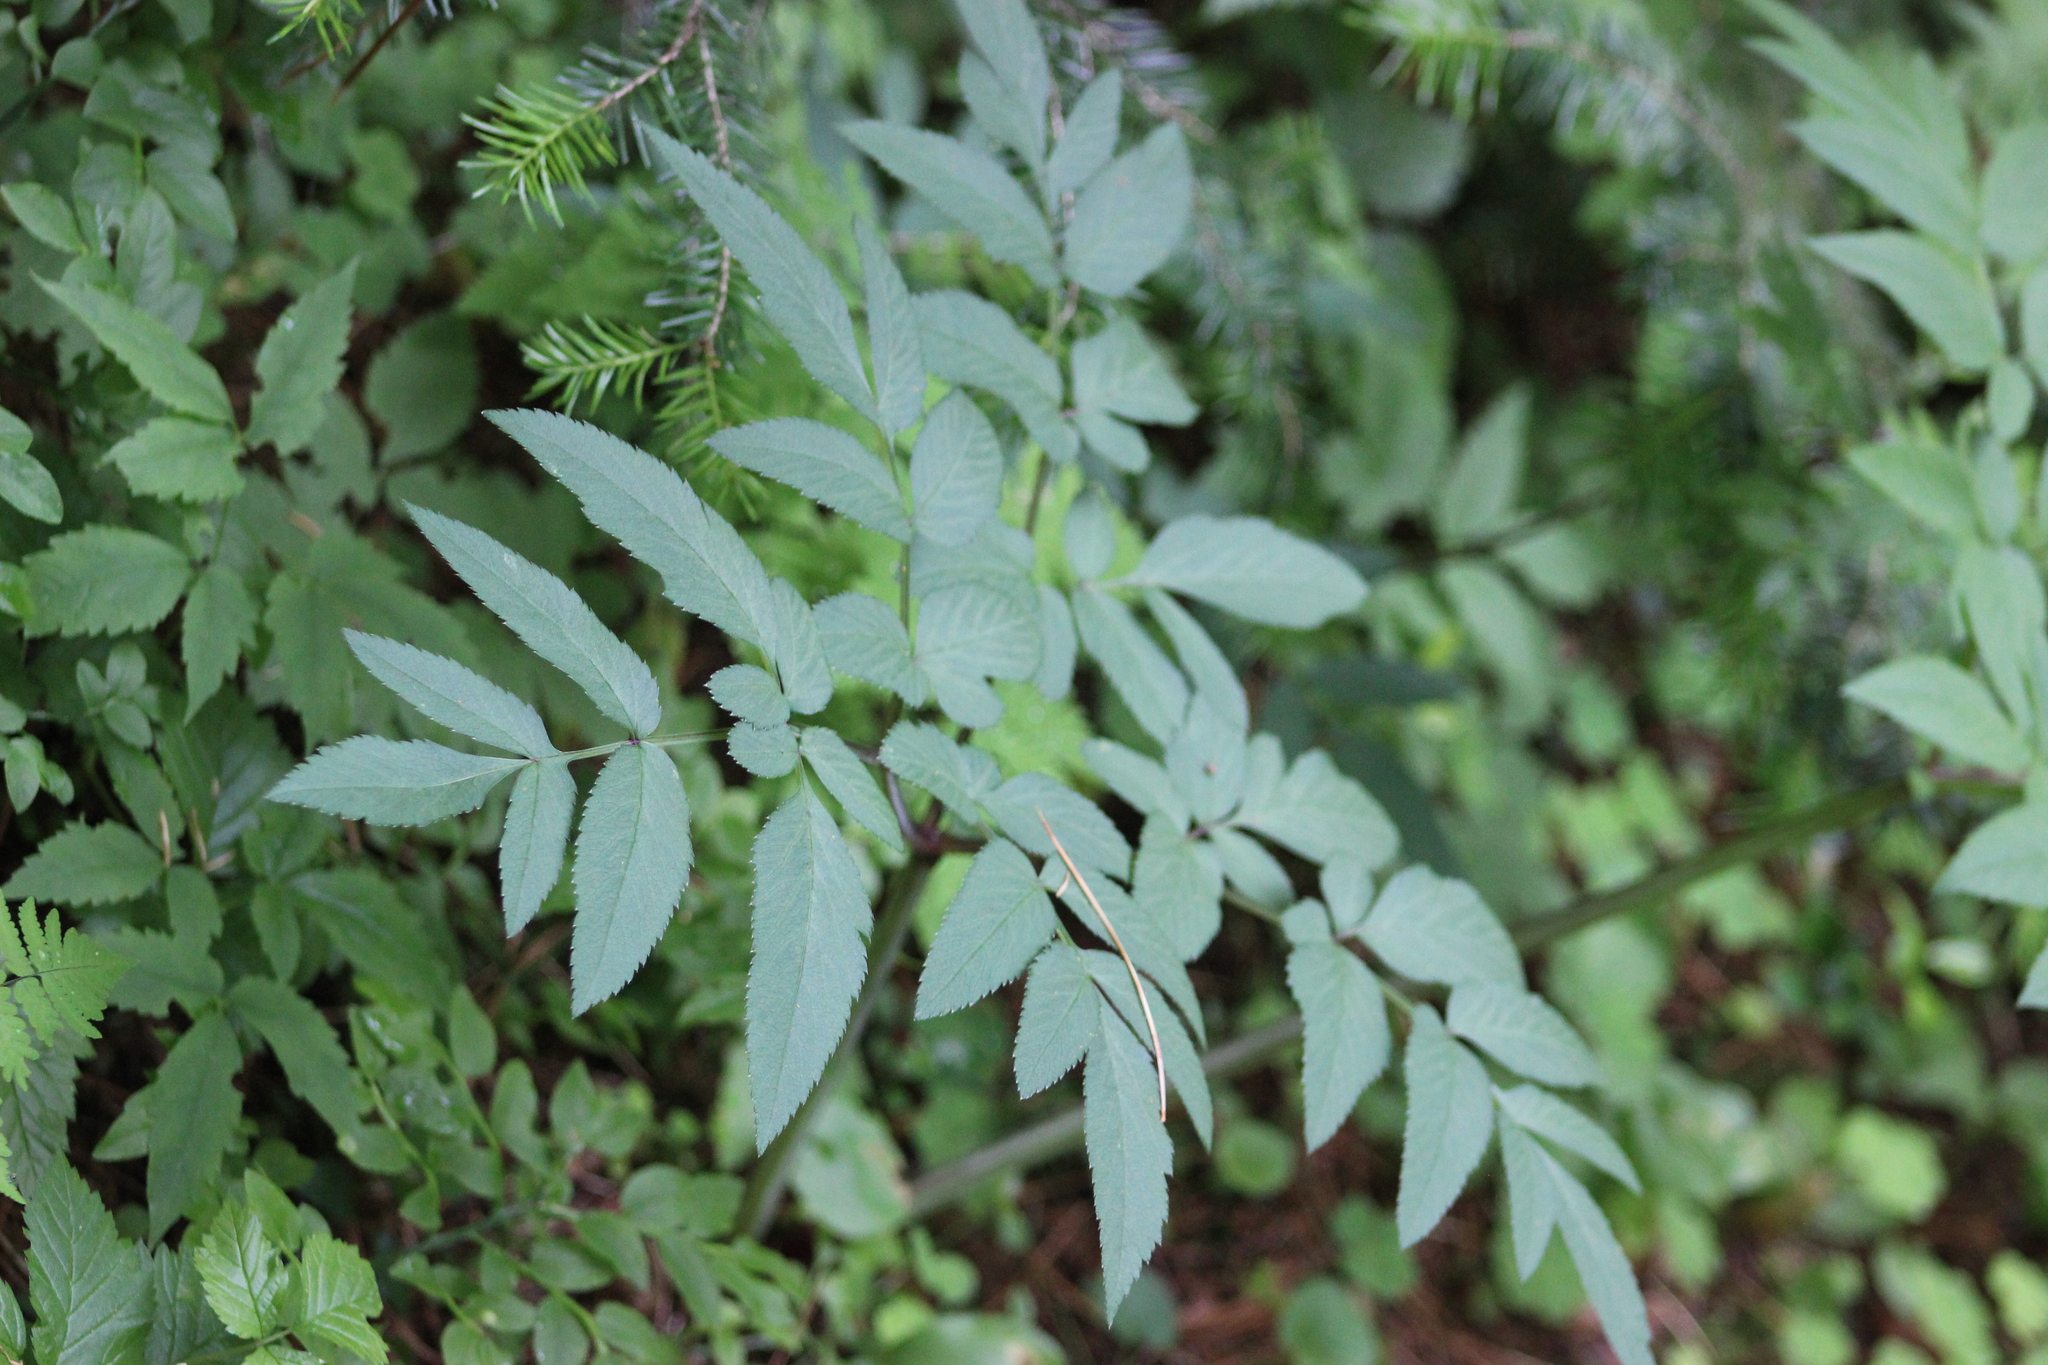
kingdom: Plantae
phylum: Tracheophyta
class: Magnoliopsida
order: Apiales
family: Apiaceae
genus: Angelica
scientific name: Angelica sylvestris
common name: Wild angelica
